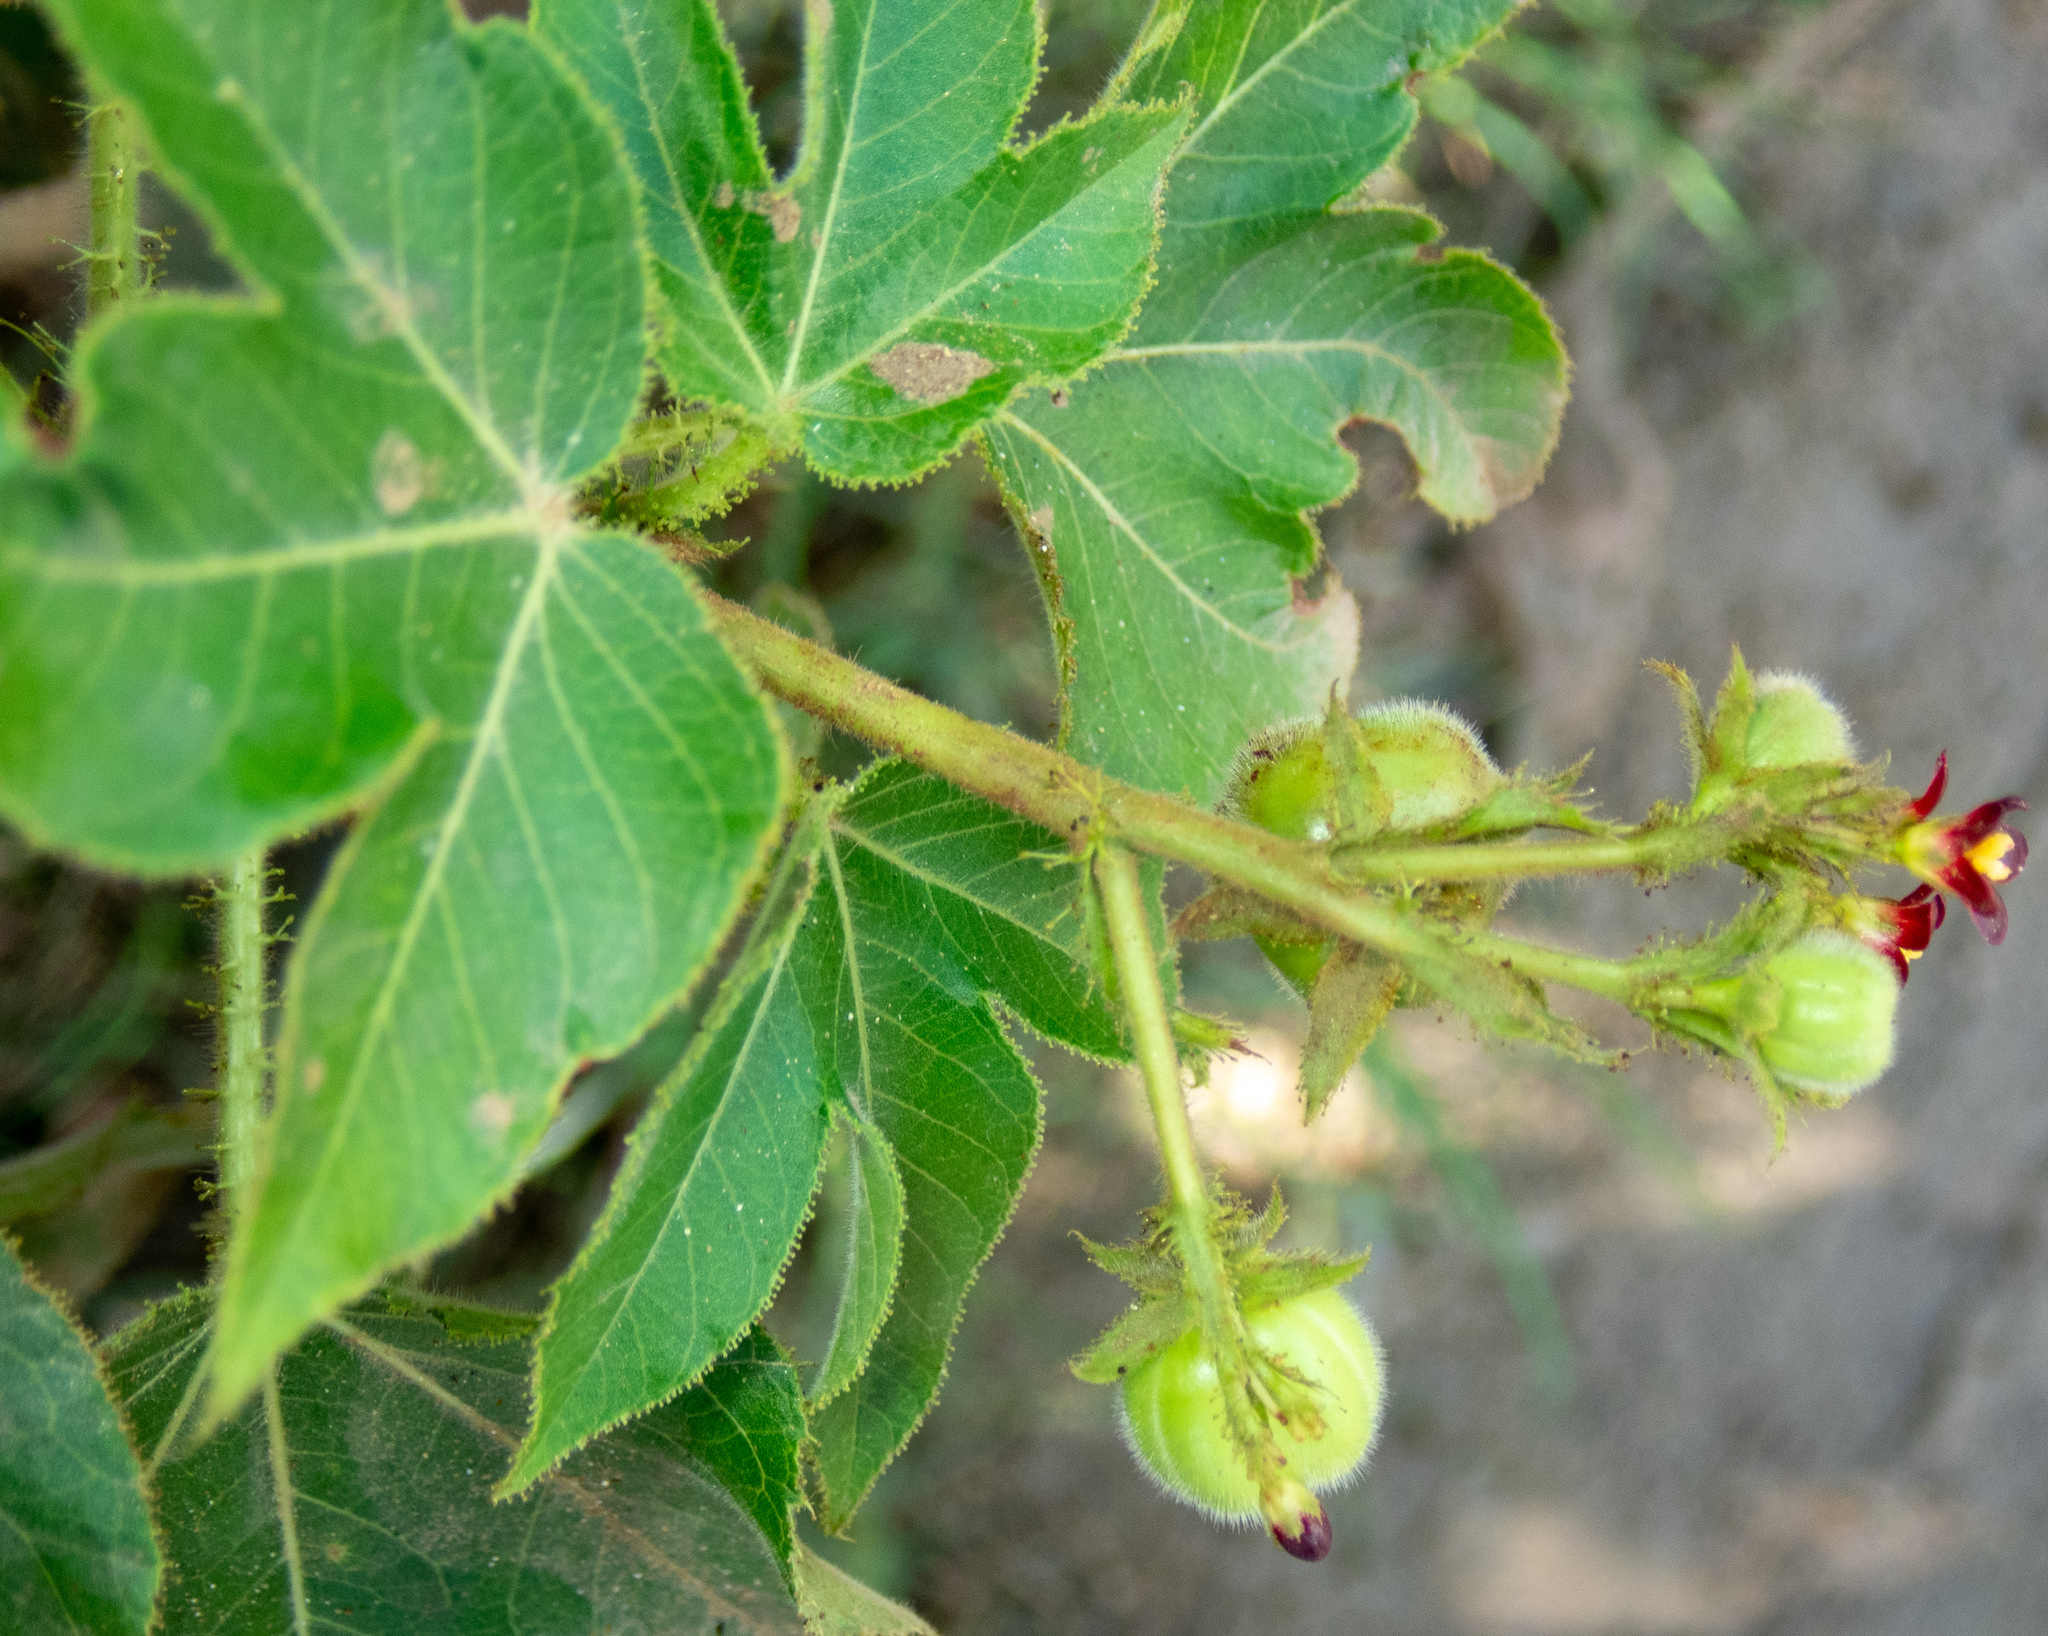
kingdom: Plantae
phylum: Tracheophyta
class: Magnoliopsida
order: Malpighiales
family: Euphorbiaceae
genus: Jatropha
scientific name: Jatropha gossypiifolia
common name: Bellyache bush
